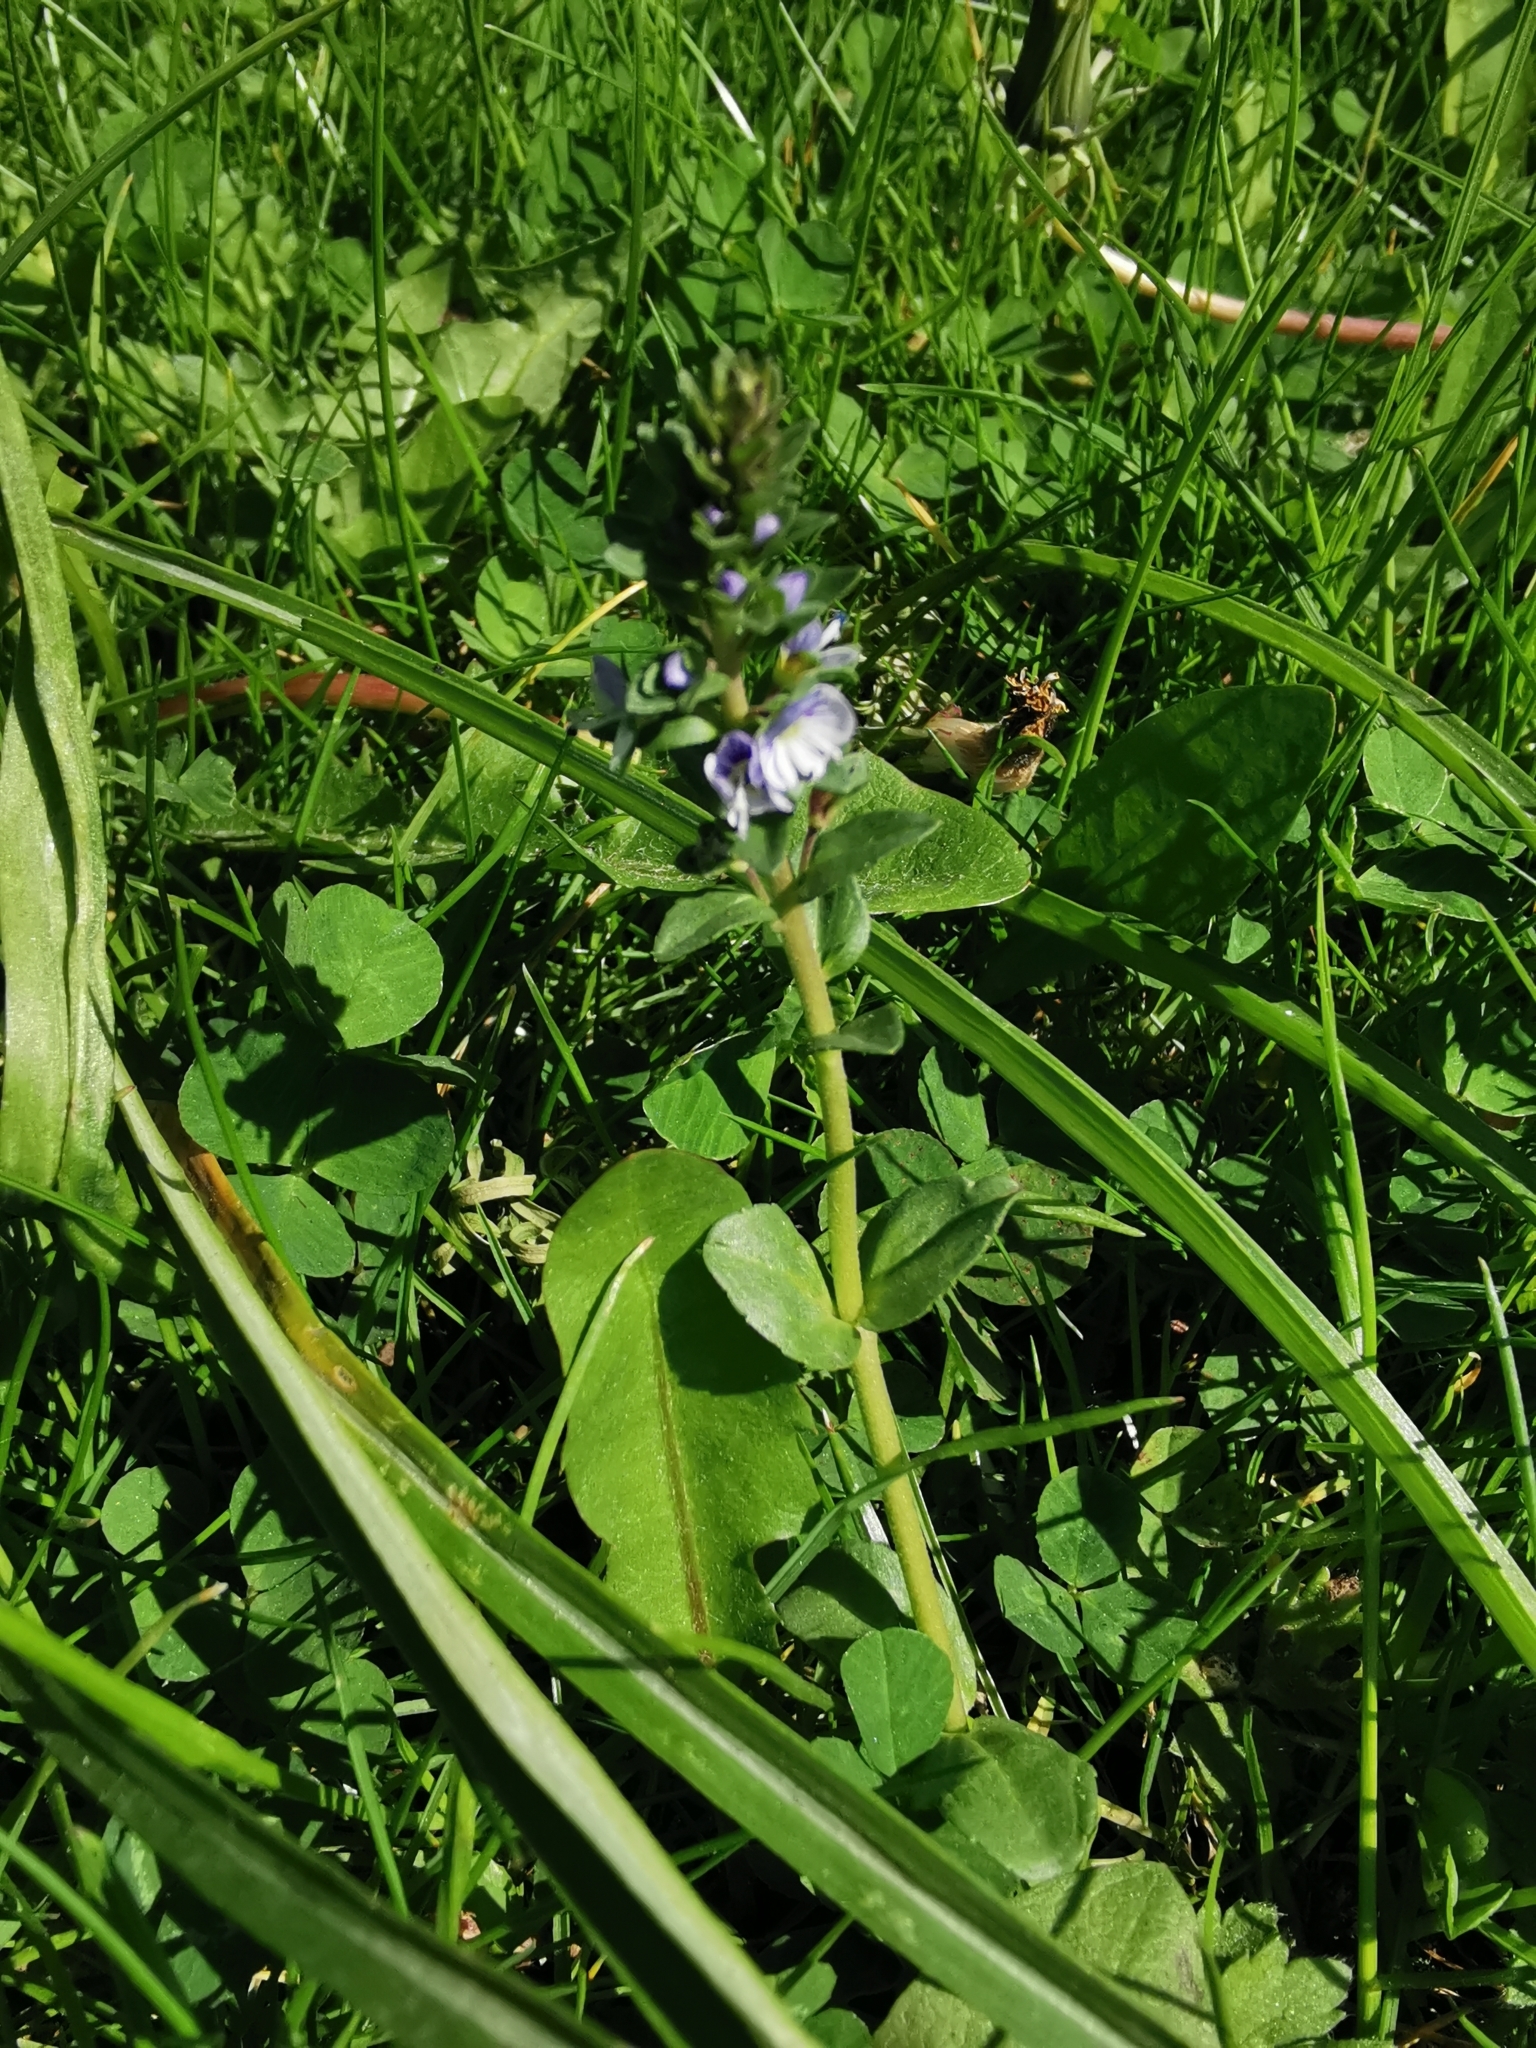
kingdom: Plantae
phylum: Tracheophyta
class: Magnoliopsida
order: Lamiales
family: Plantaginaceae
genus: Veronica
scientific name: Veronica serpyllifolia
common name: Thyme-leaved speedwell
